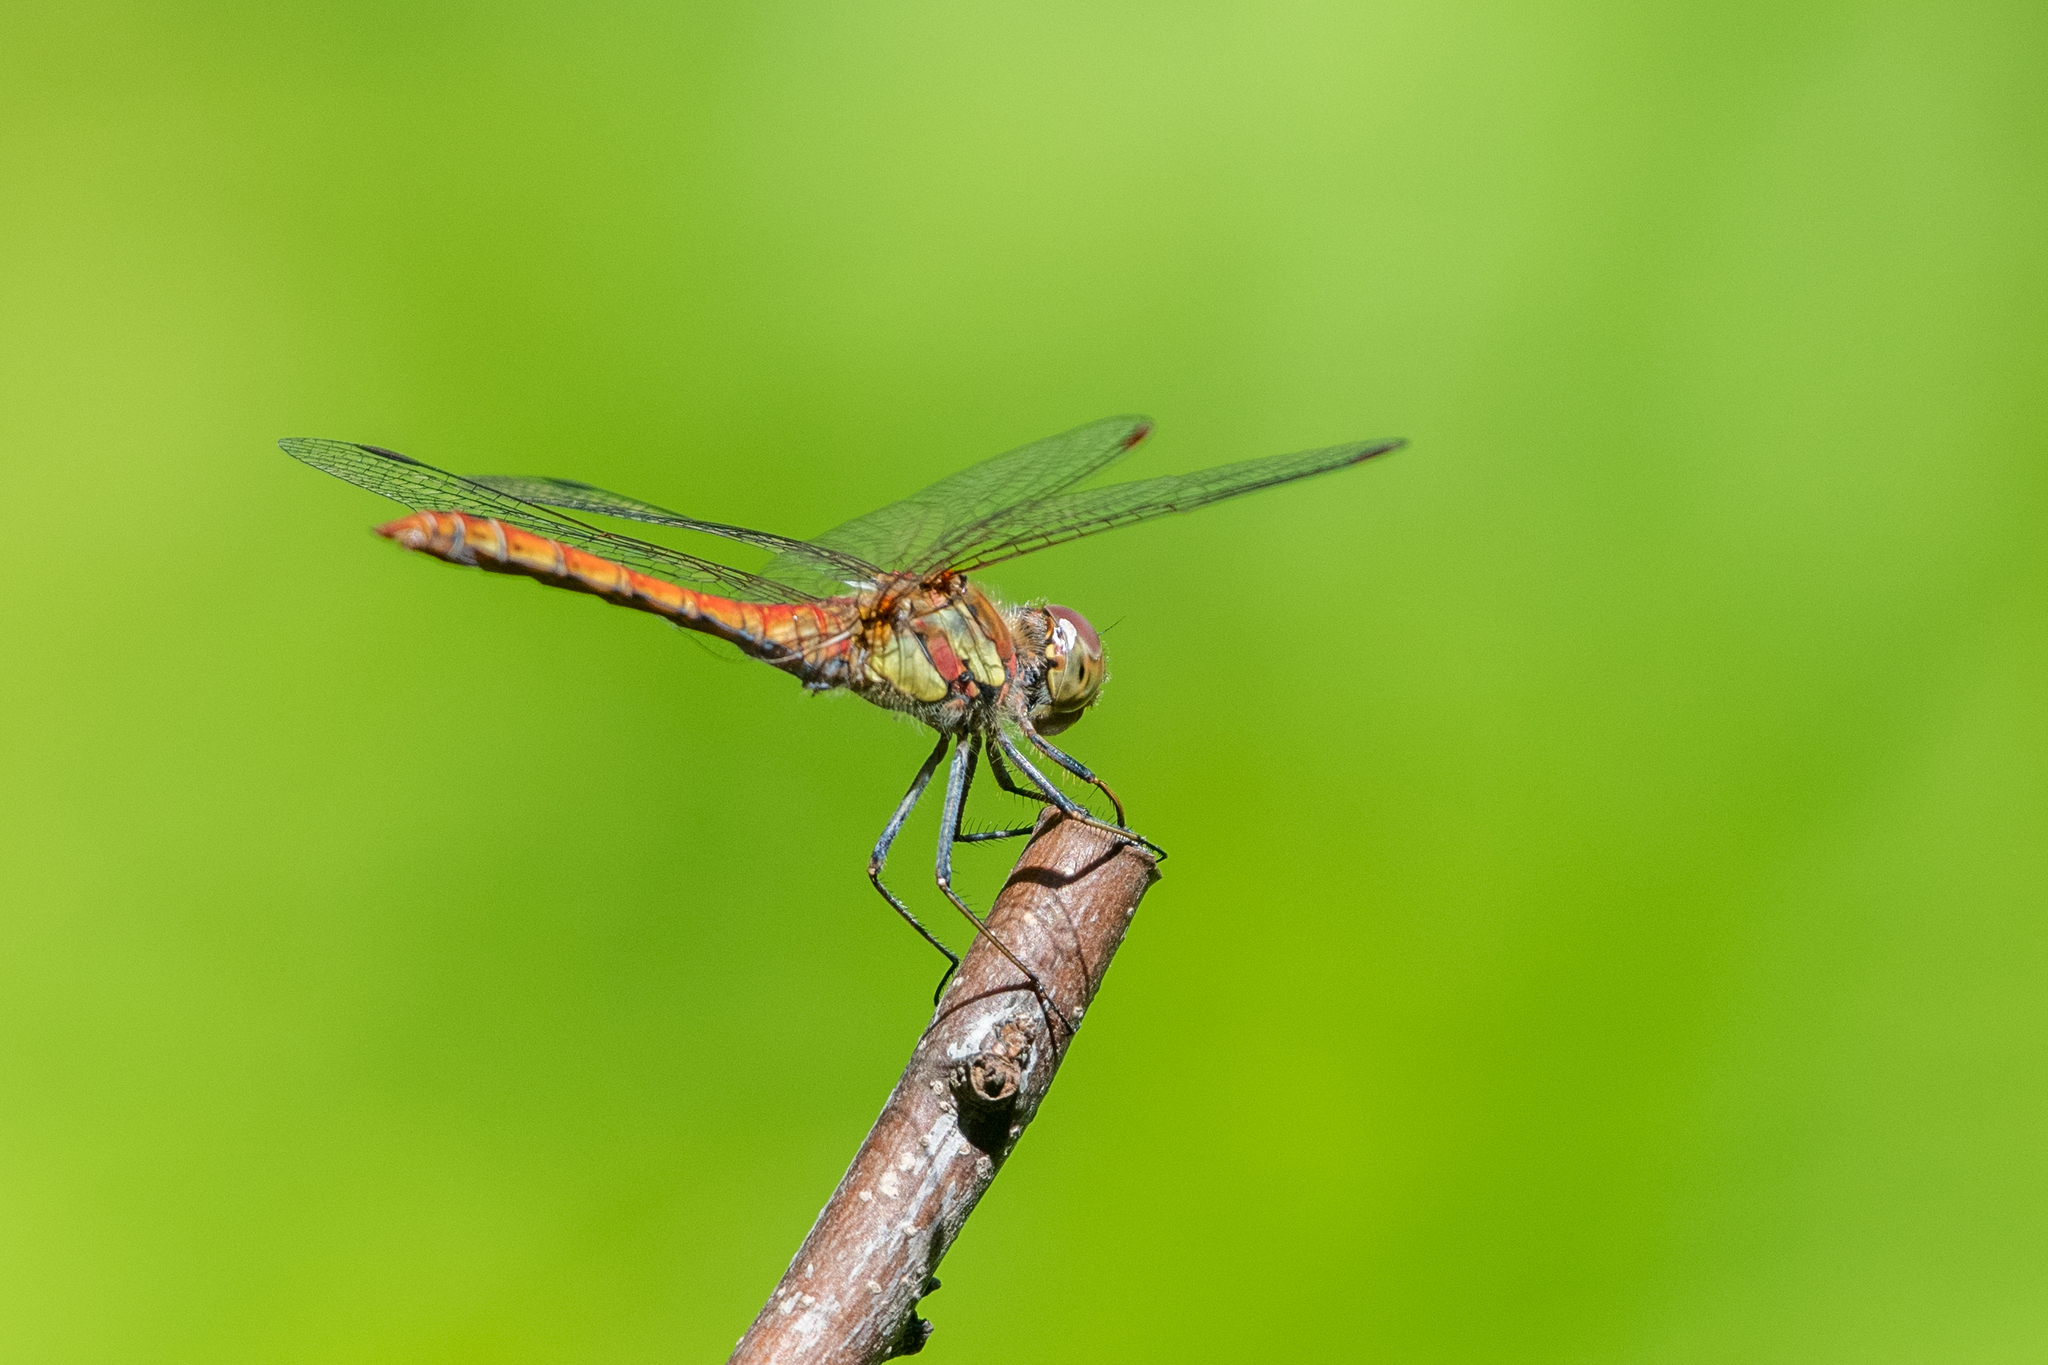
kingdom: Animalia
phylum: Arthropoda
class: Insecta
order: Odonata
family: Libellulidae
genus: Sympetrum
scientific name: Sympetrum striolatum
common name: Common darter
